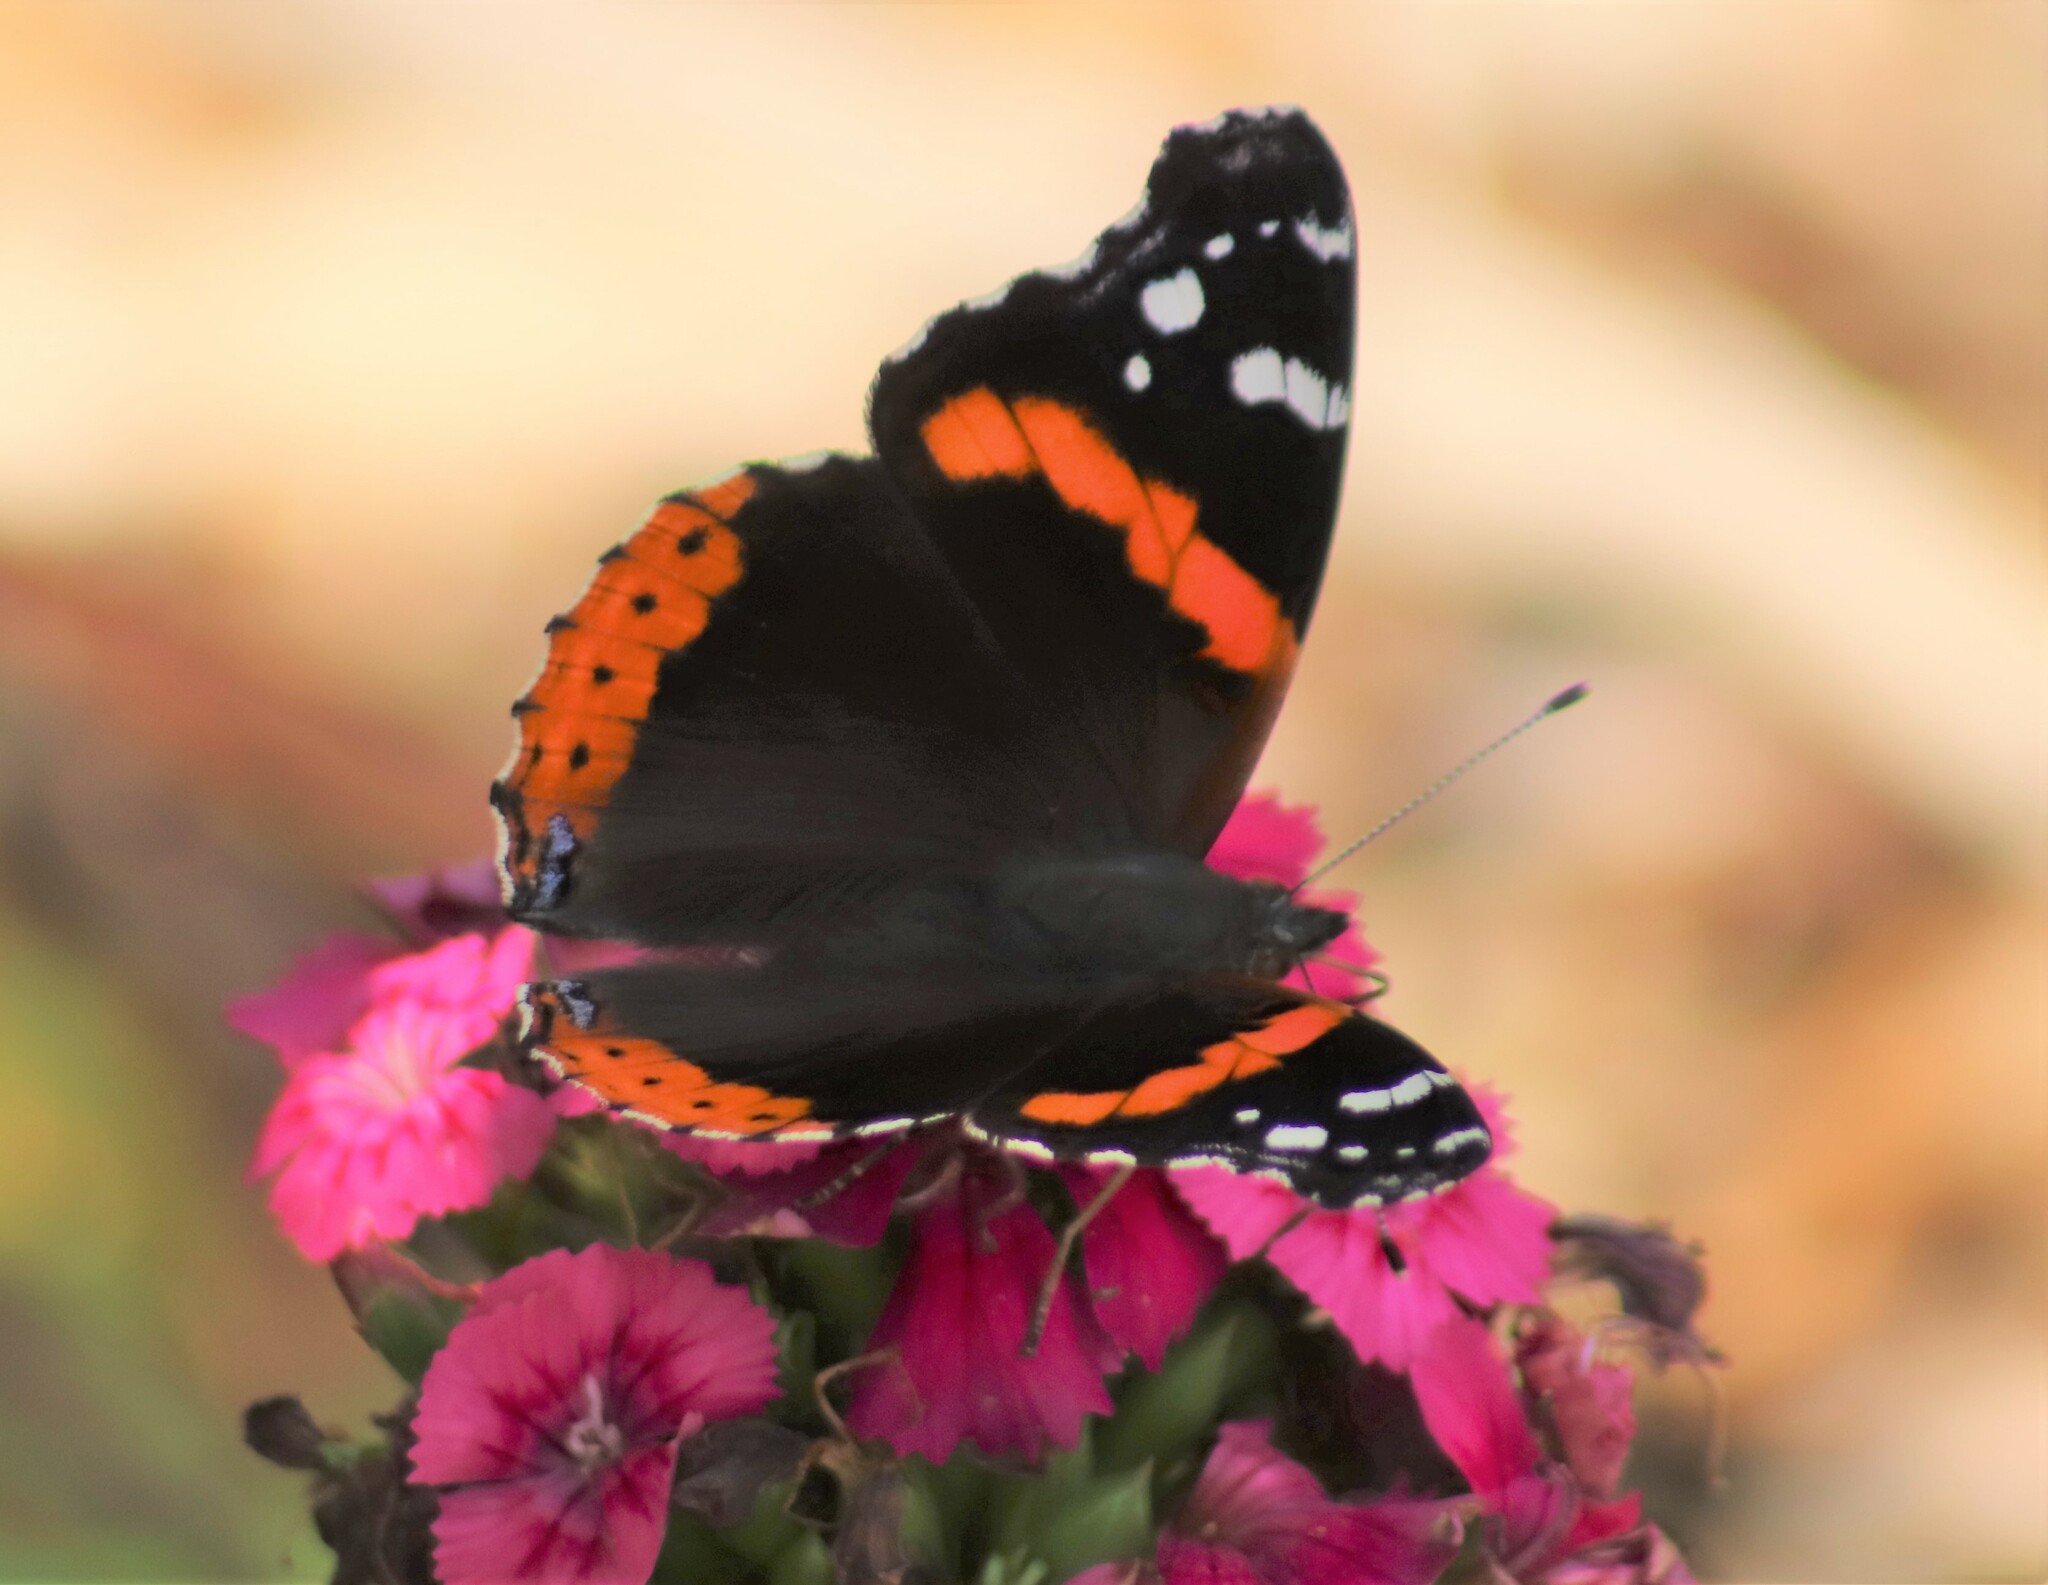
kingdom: Animalia
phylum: Arthropoda
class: Insecta
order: Lepidoptera
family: Nymphalidae
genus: Vanessa
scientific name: Vanessa atalanta
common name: Red admiral
